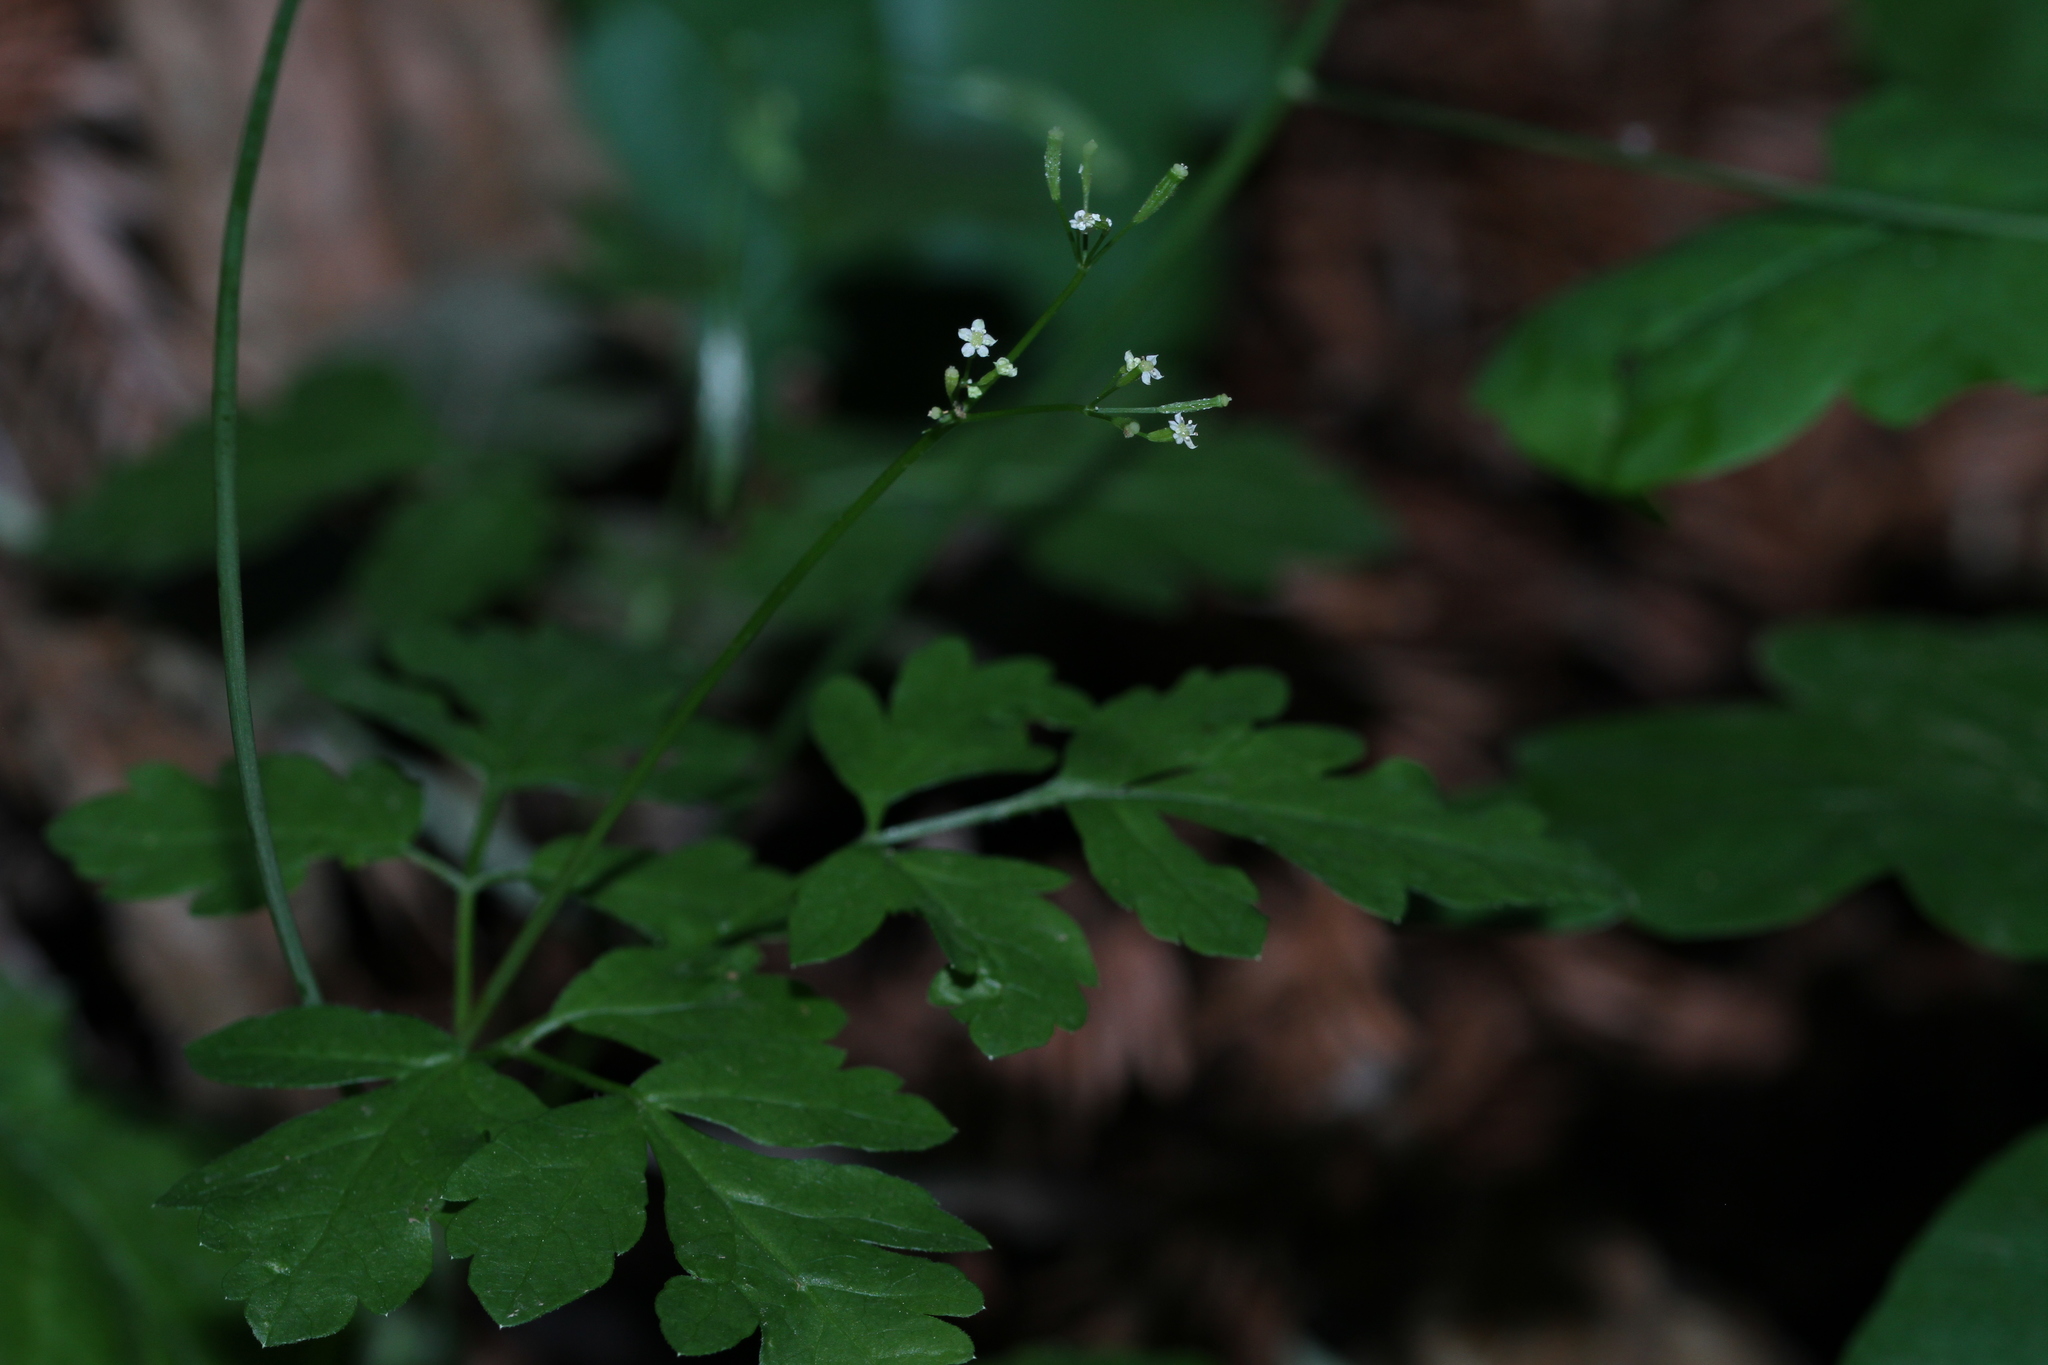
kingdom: Plantae
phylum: Tracheophyta
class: Magnoliopsida
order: Apiales
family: Apiaceae
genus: Osmorhiza
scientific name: Osmorhiza berteroi
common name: Mountain sweet cicely
